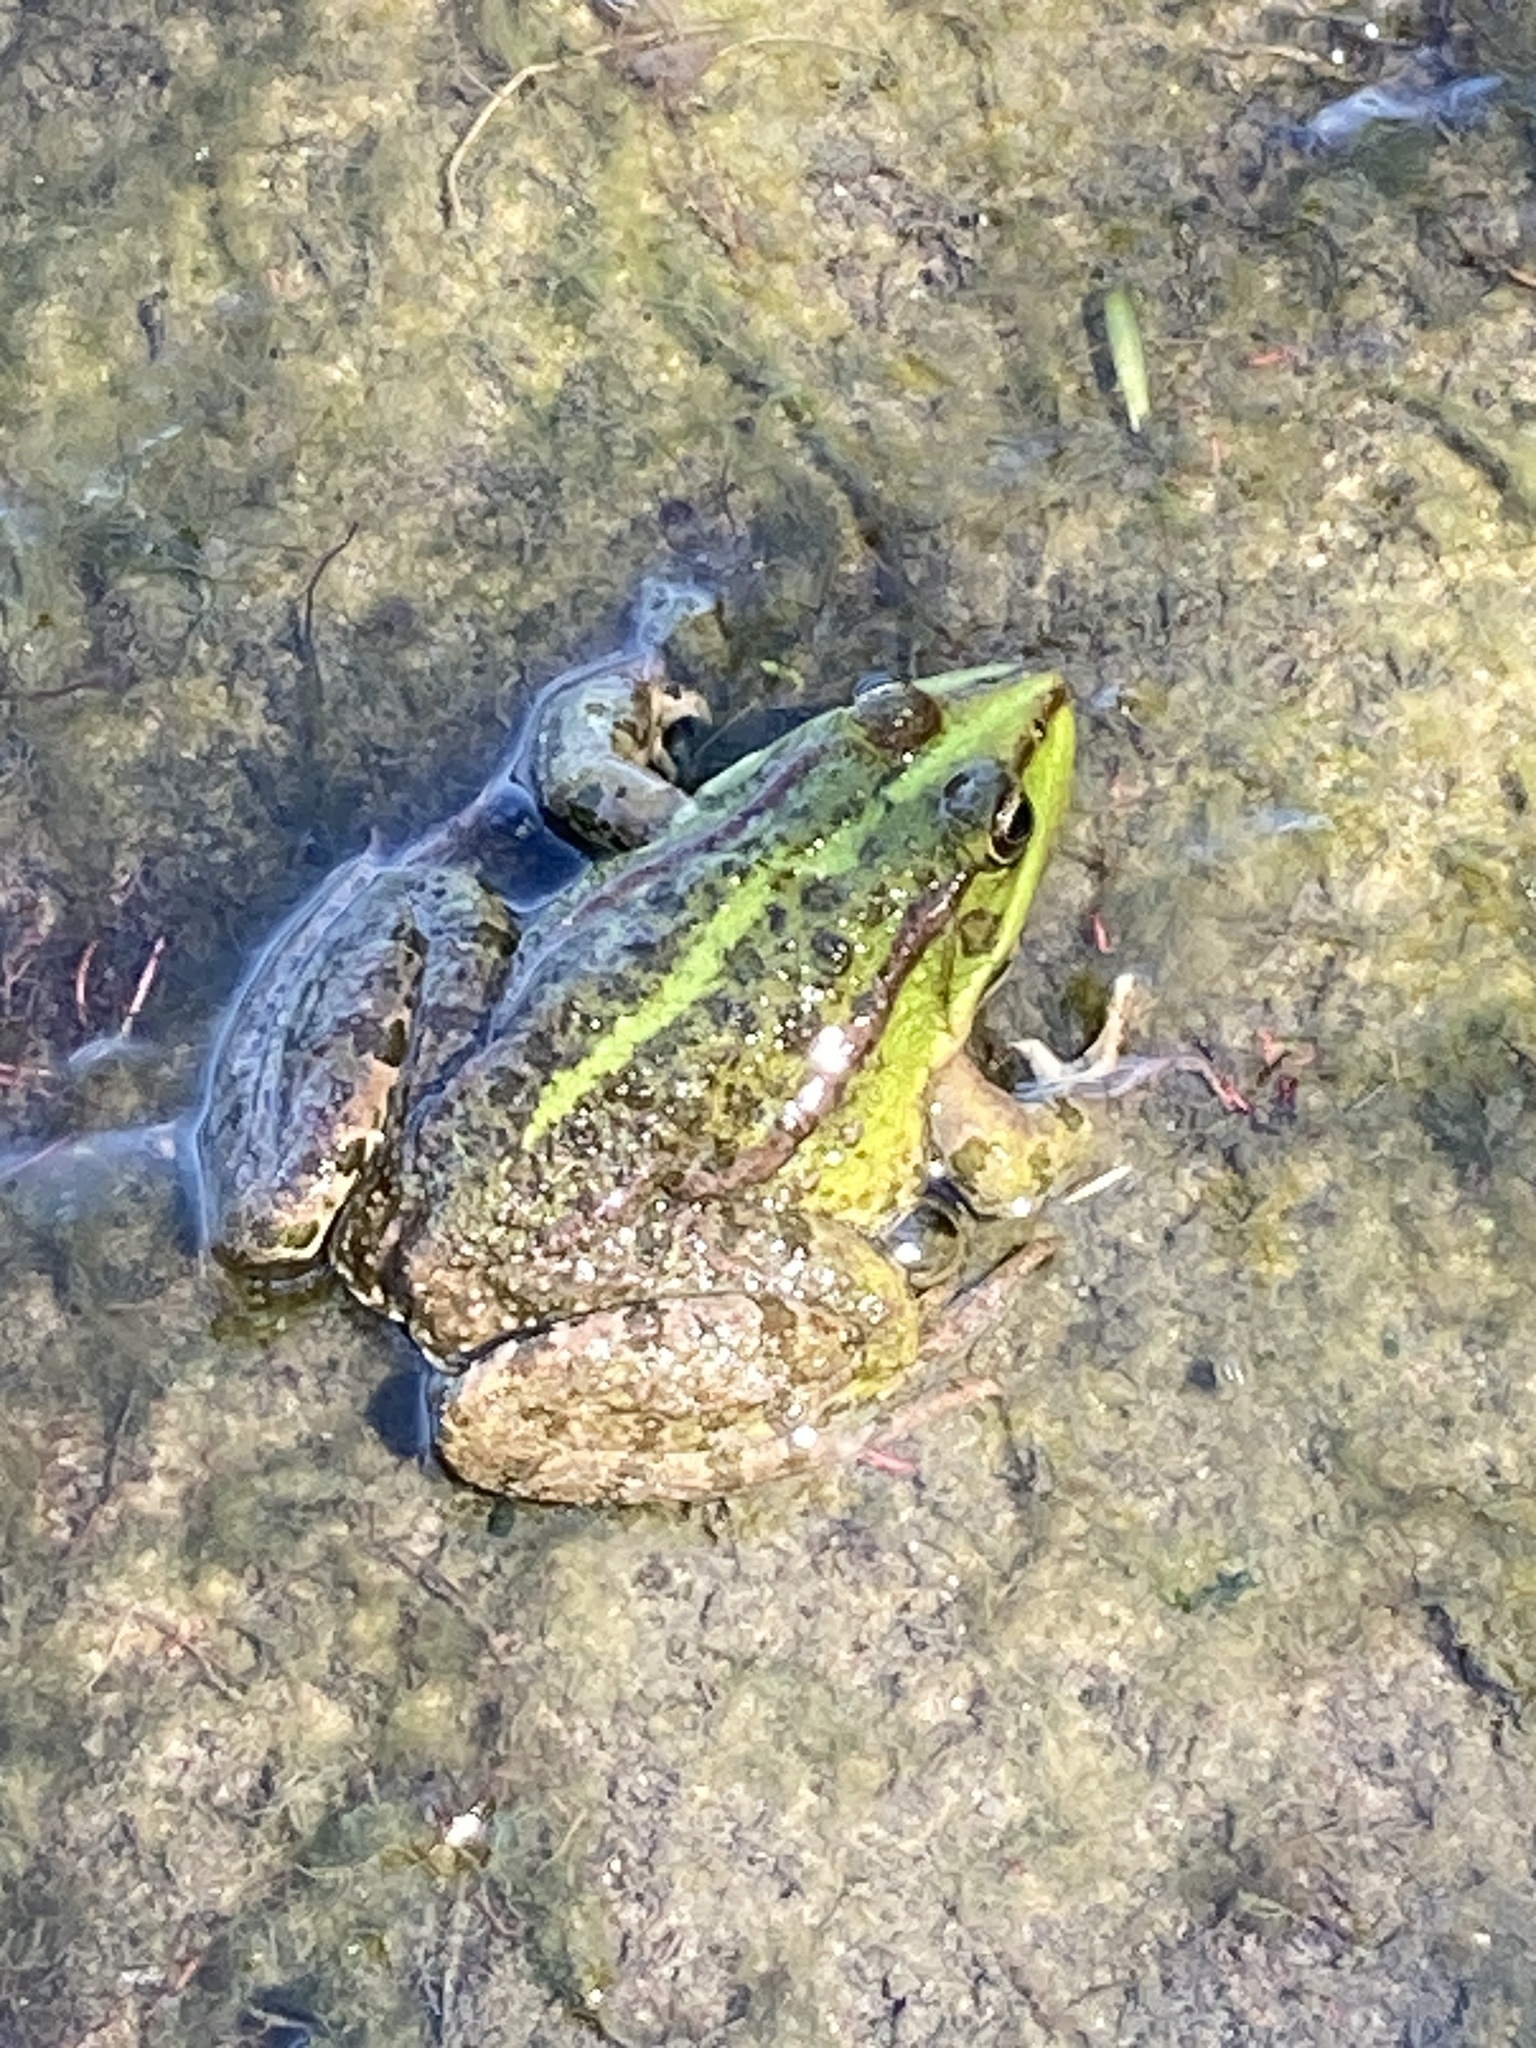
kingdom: Animalia
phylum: Chordata
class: Amphibia
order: Anura
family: Ranidae
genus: Pelophylax
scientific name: Pelophylax ridibundus
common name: Marsh frog
